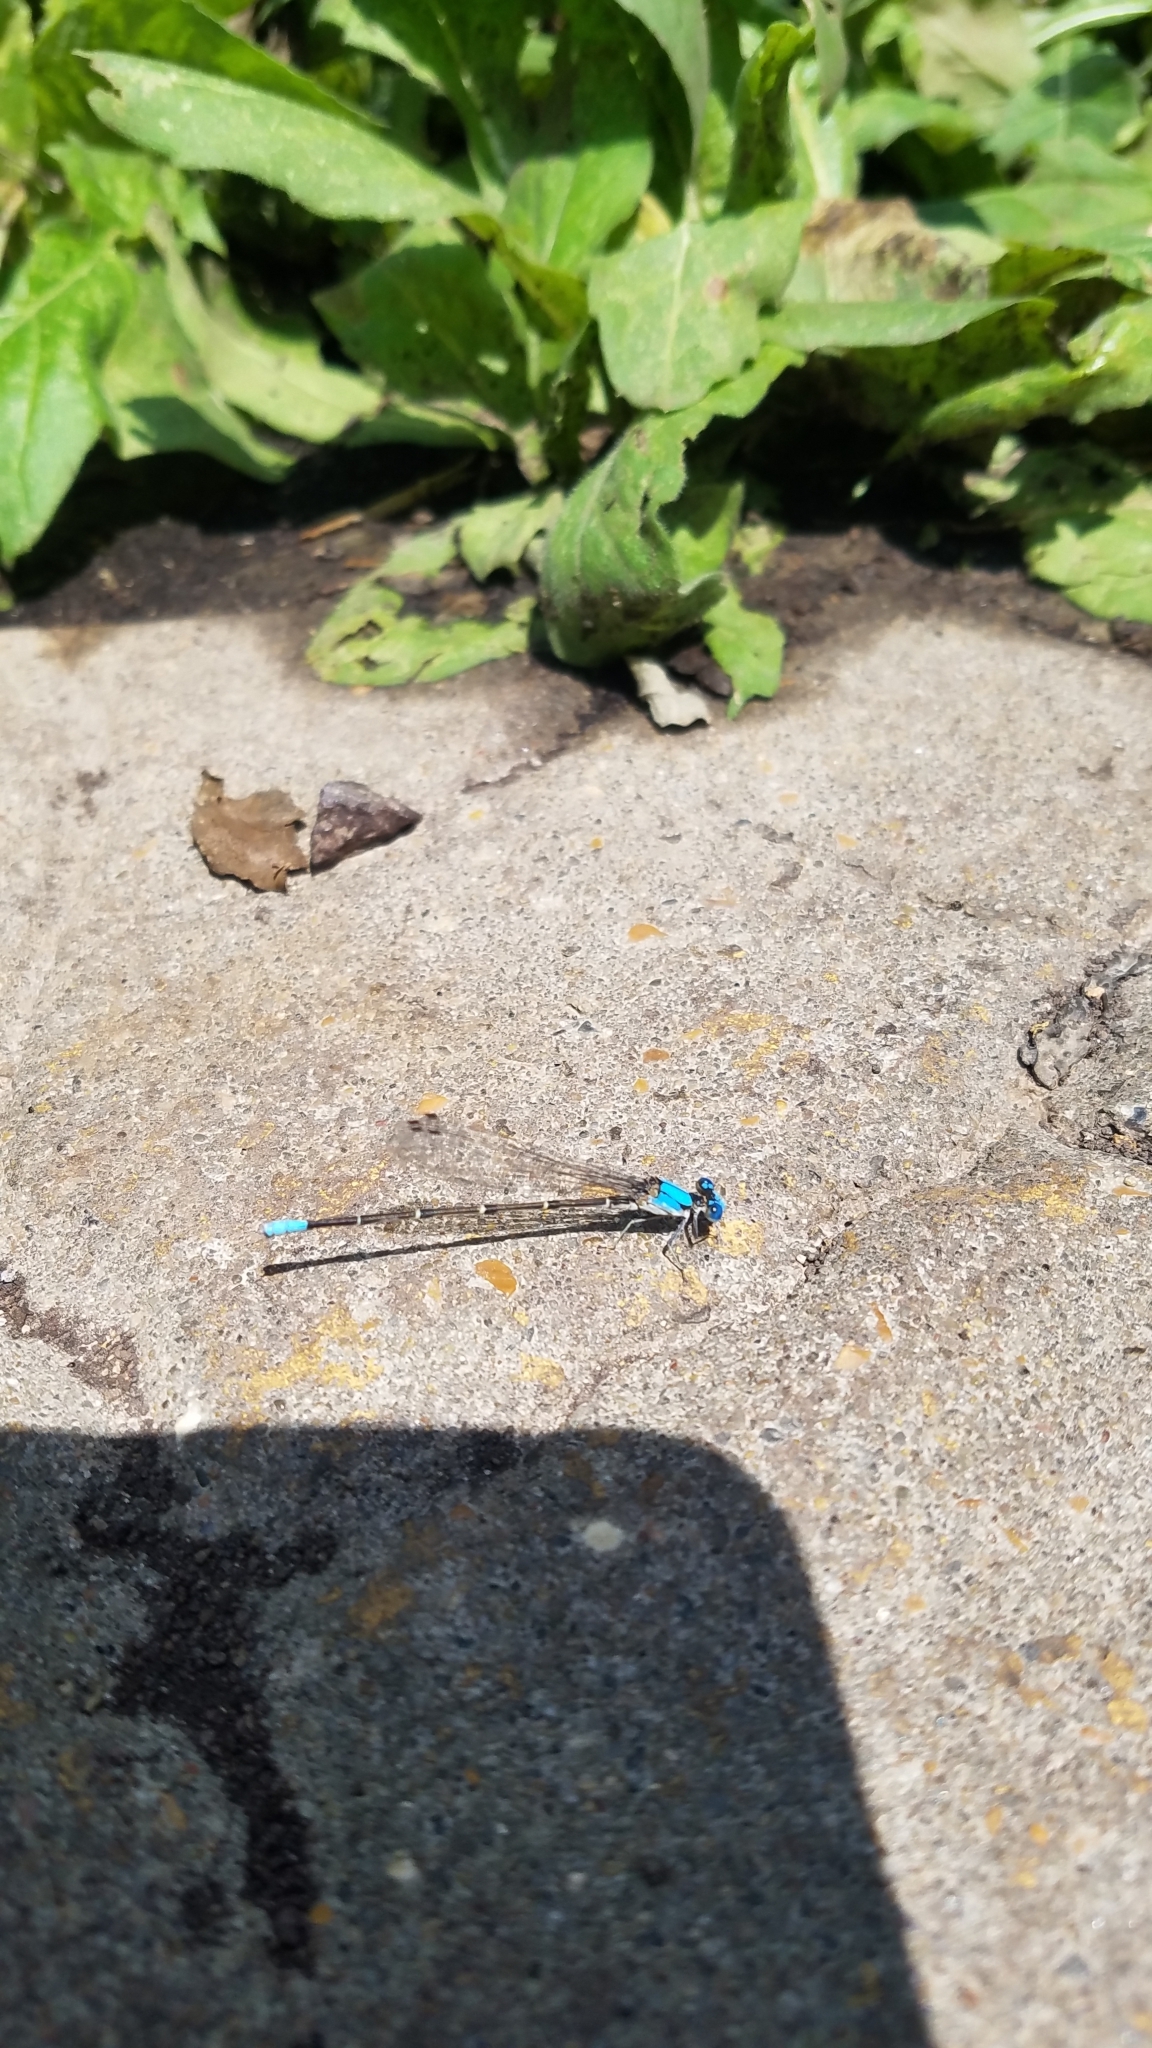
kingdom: Animalia
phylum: Arthropoda
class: Insecta
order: Odonata
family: Coenagrionidae
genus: Argia
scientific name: Argia apicalis
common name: Blue-fronted dancer
